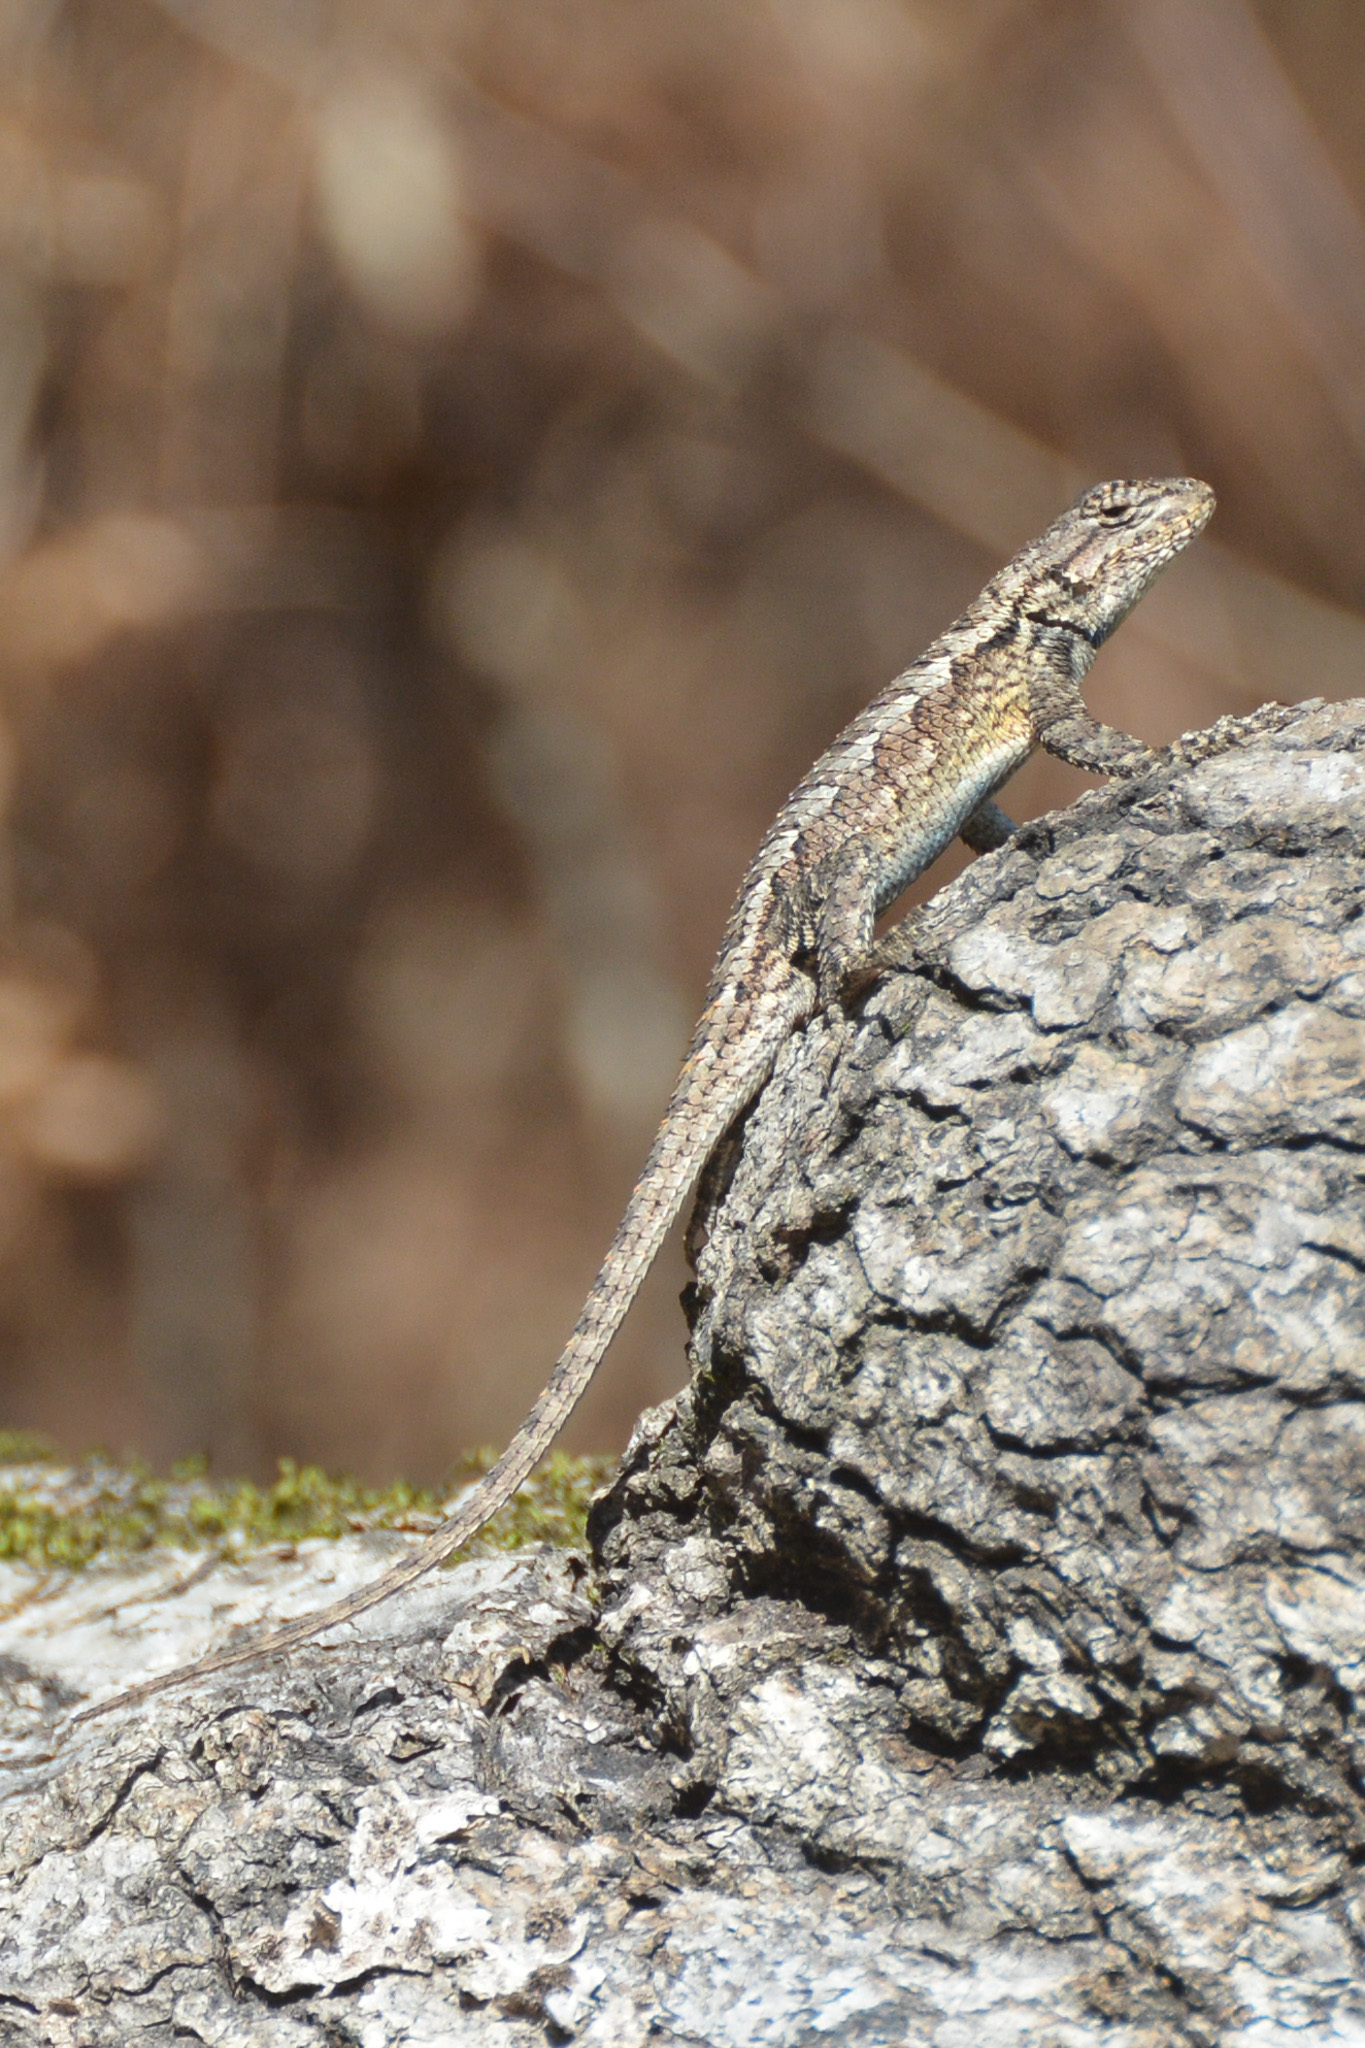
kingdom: Animalia
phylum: Chordata
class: Squamata
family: Phrynosomatidae
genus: Sceloporus
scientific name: Sceloporus consobrinus
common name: Southern prairie lizard
